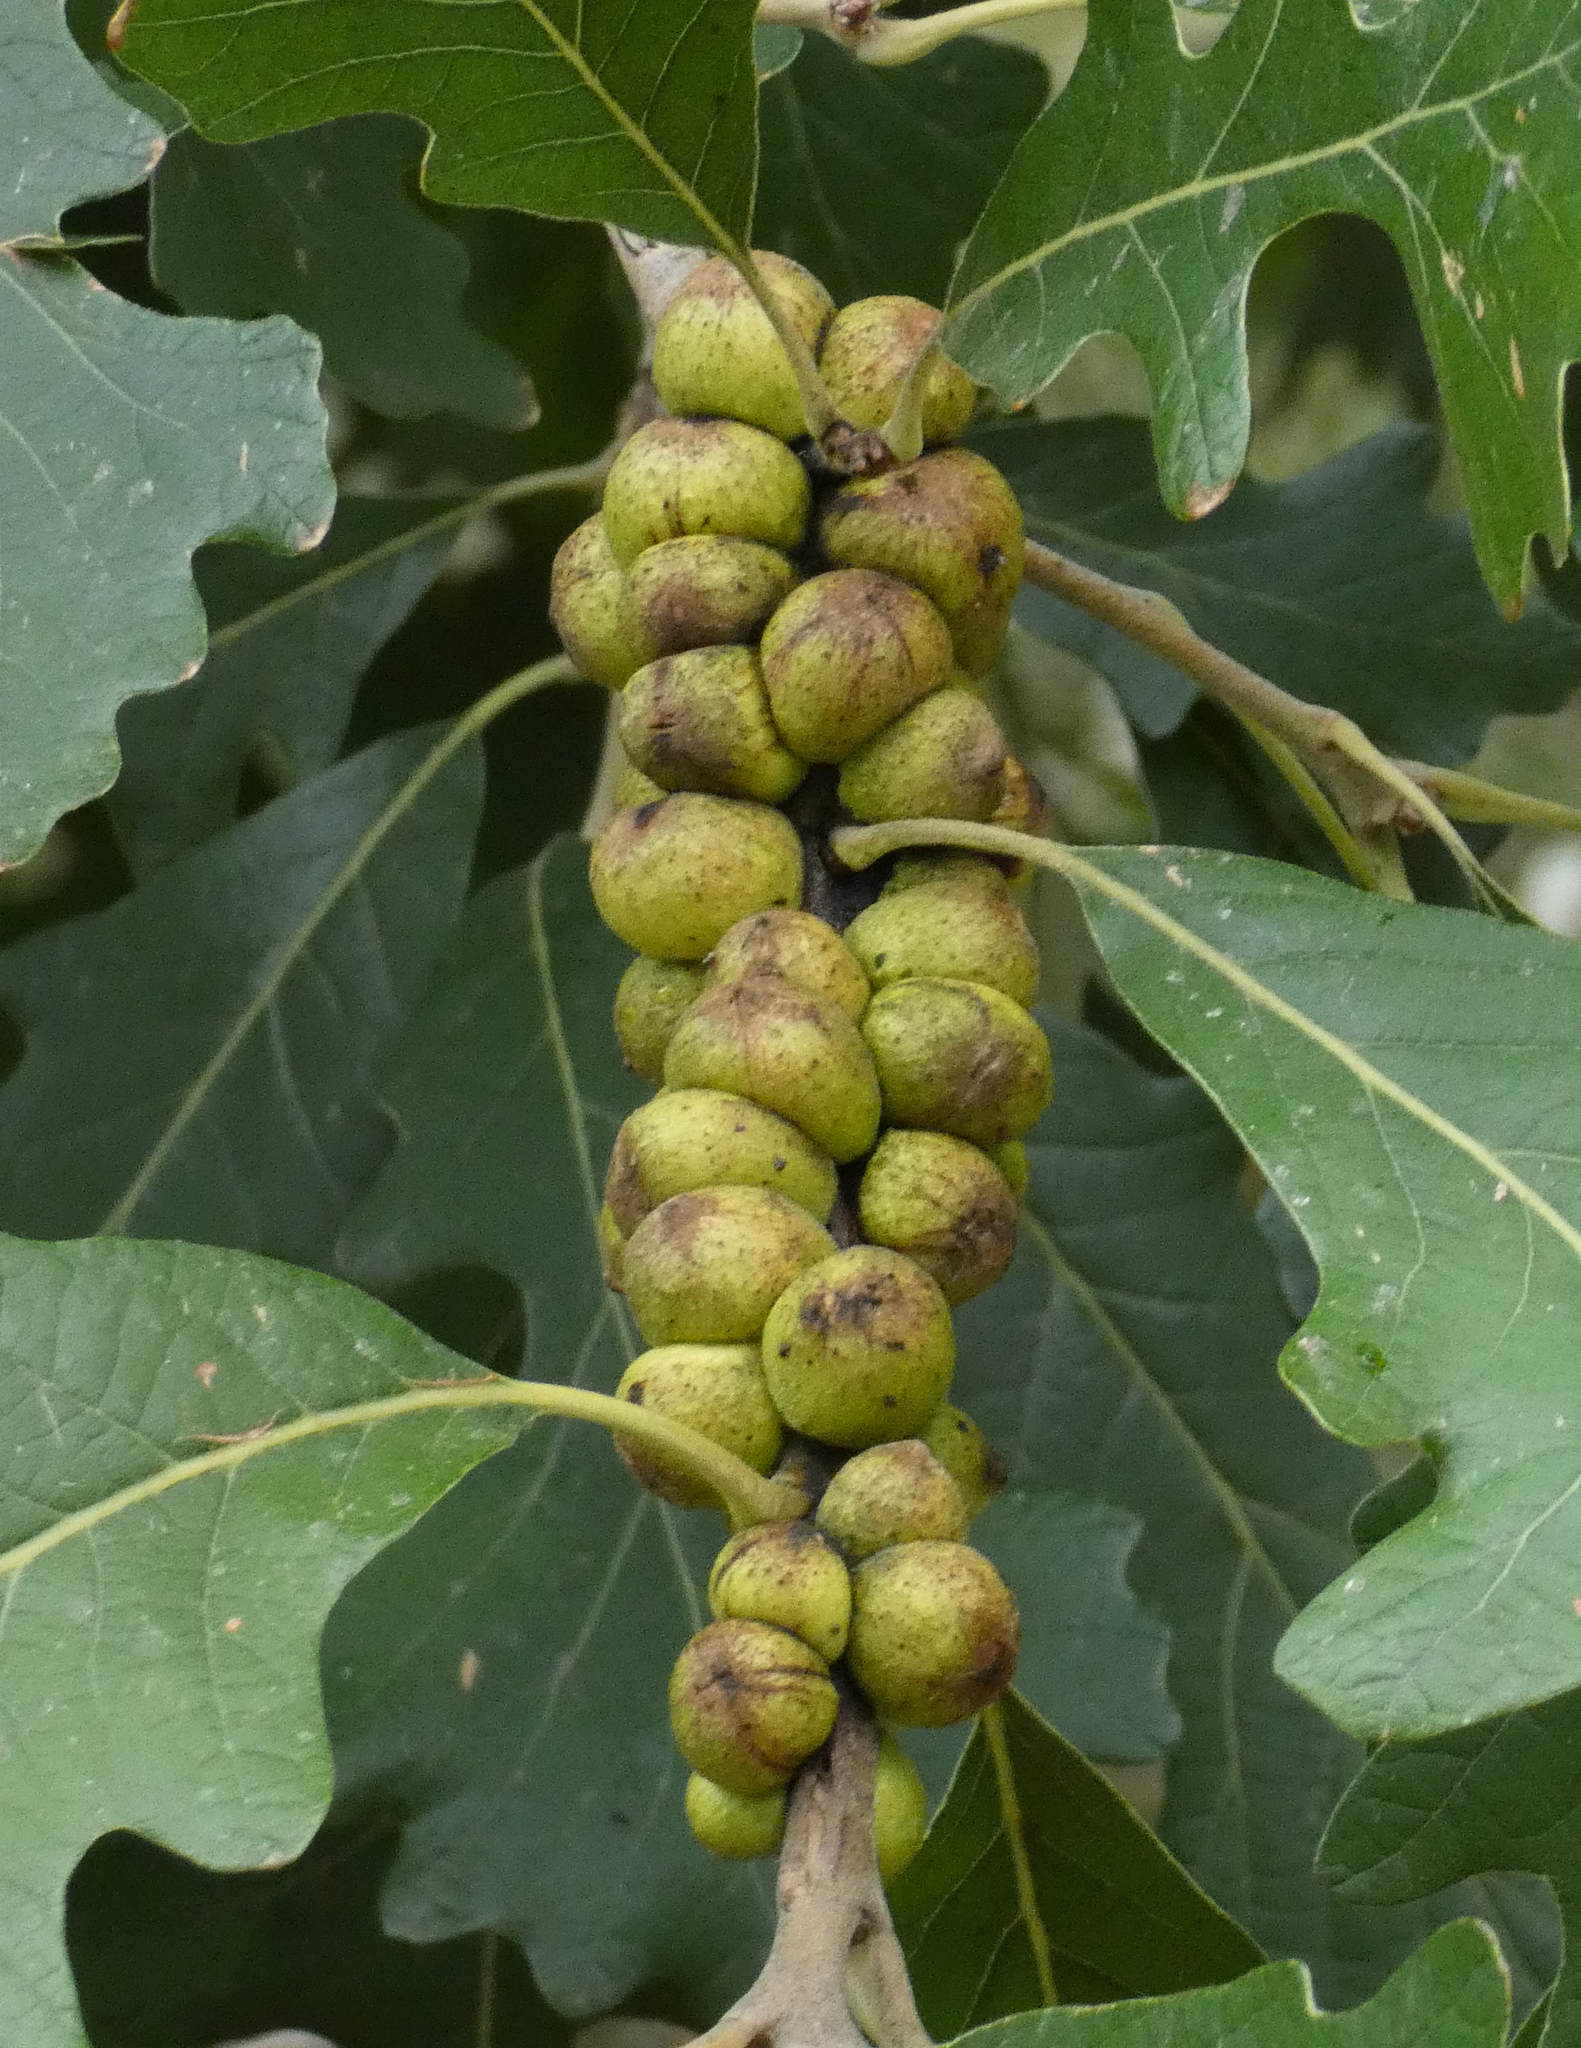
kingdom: Animalia
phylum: Arthropoda
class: Insecta
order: Hymenoptera
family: Cynipidae
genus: Disholcaspis
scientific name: Disholcaspis
